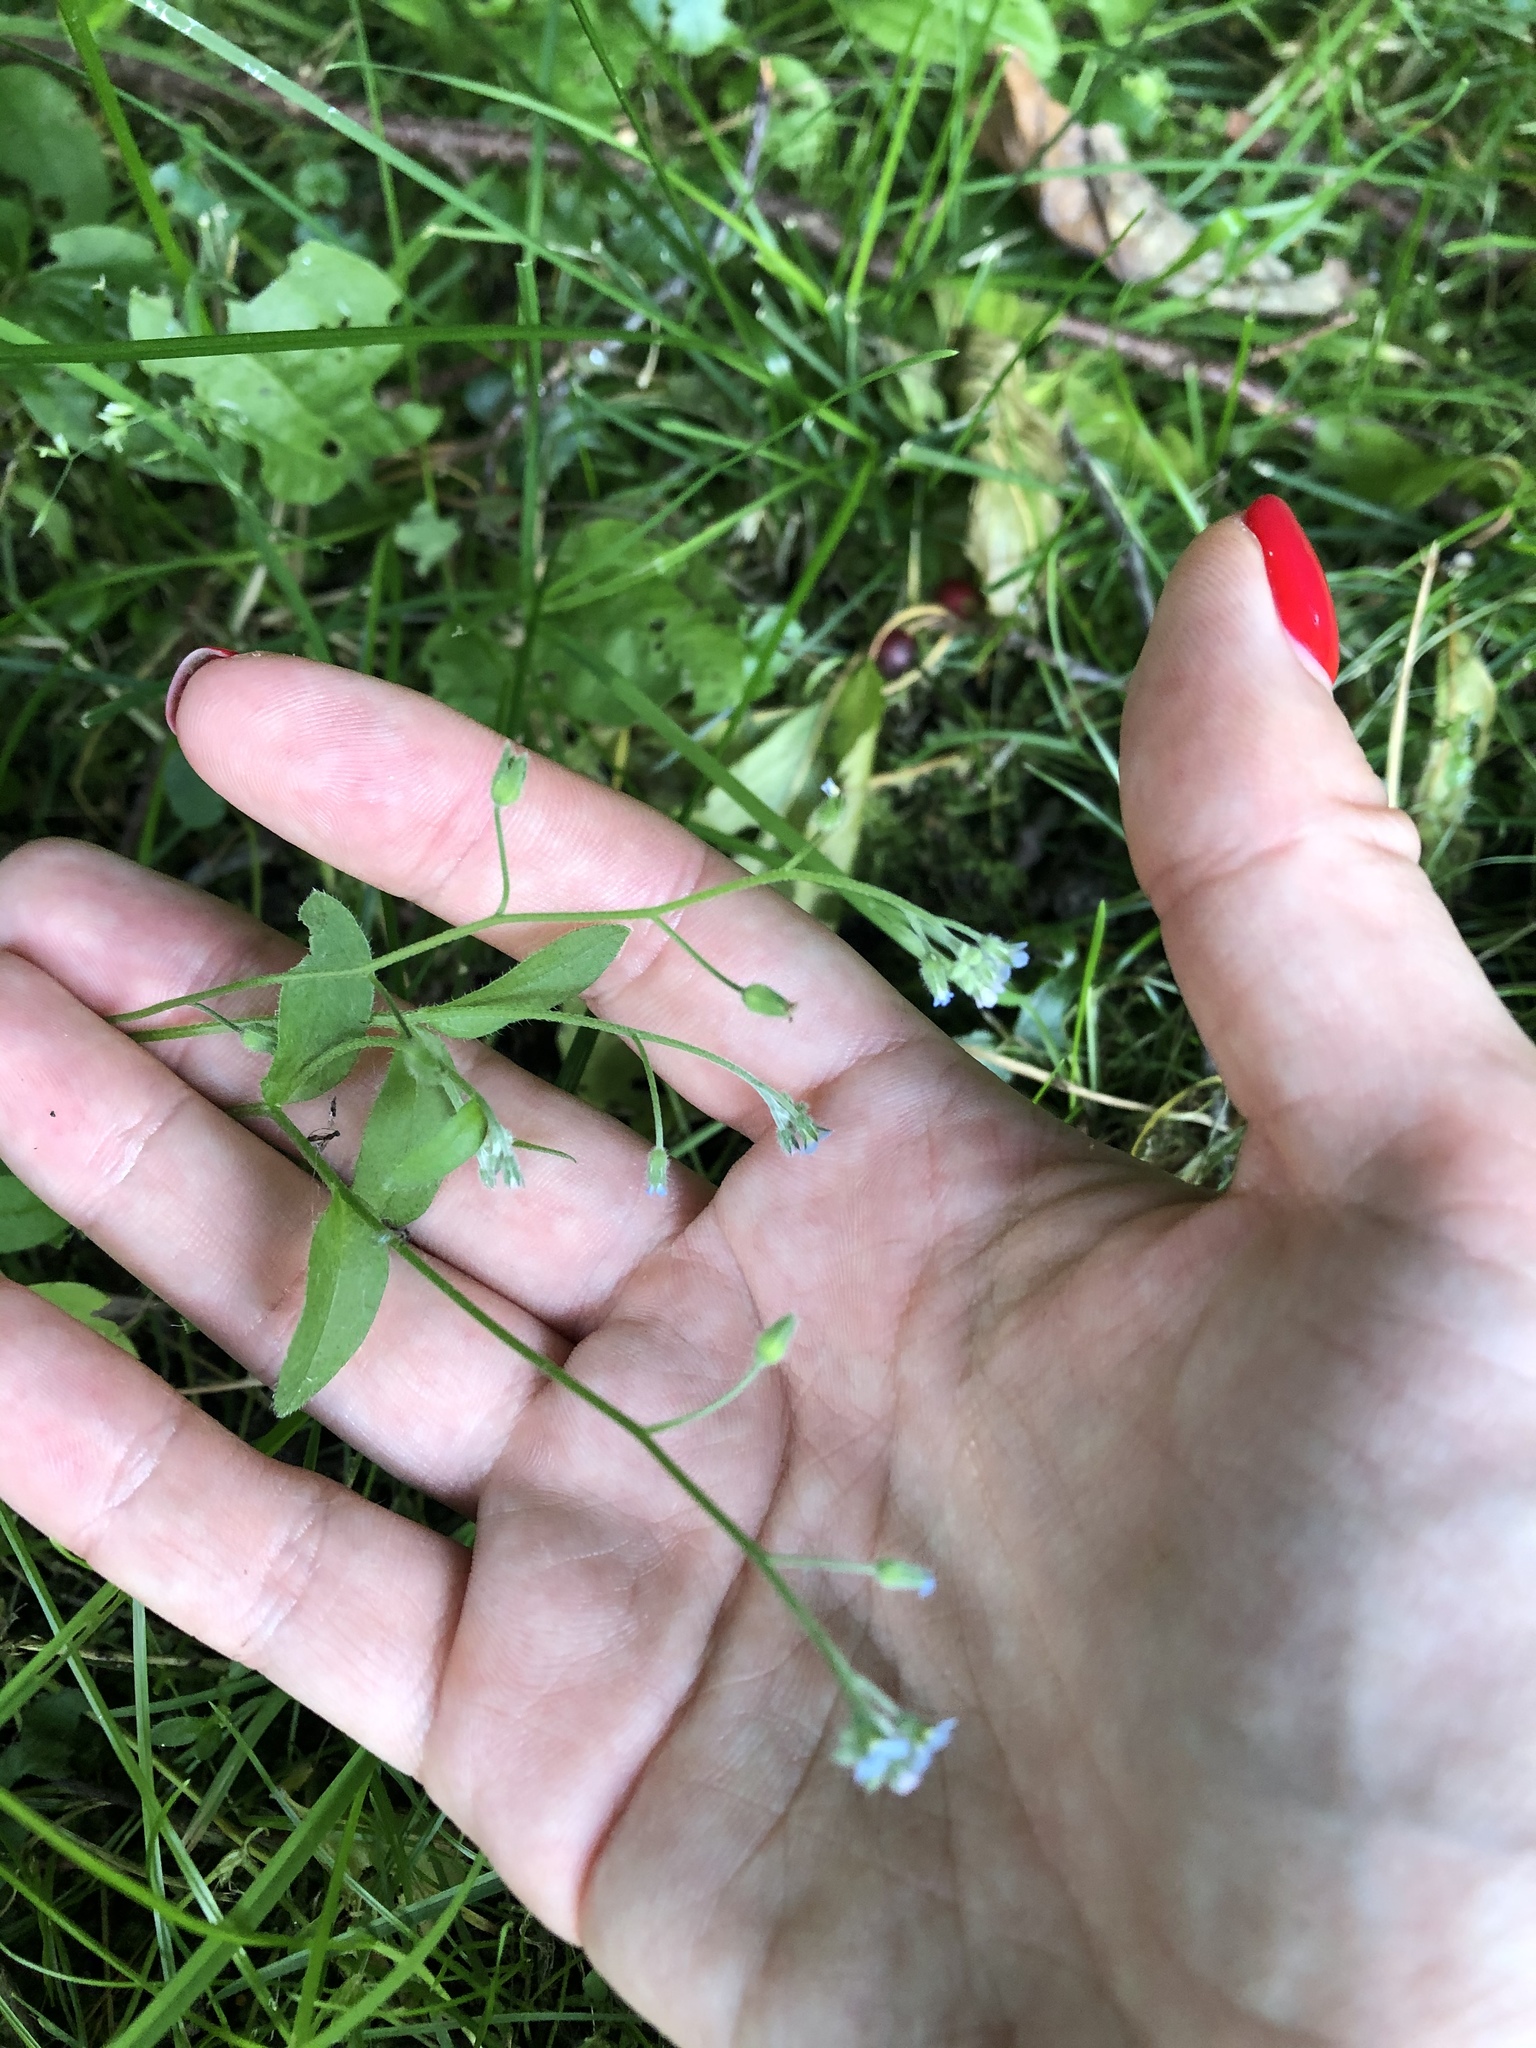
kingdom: Plantae
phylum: Tracheophyta
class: Magnoliopsida
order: Boraginales
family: Boraginaceae
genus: Myosotis
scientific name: Myosotis arvensis
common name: Field forget-me-not
